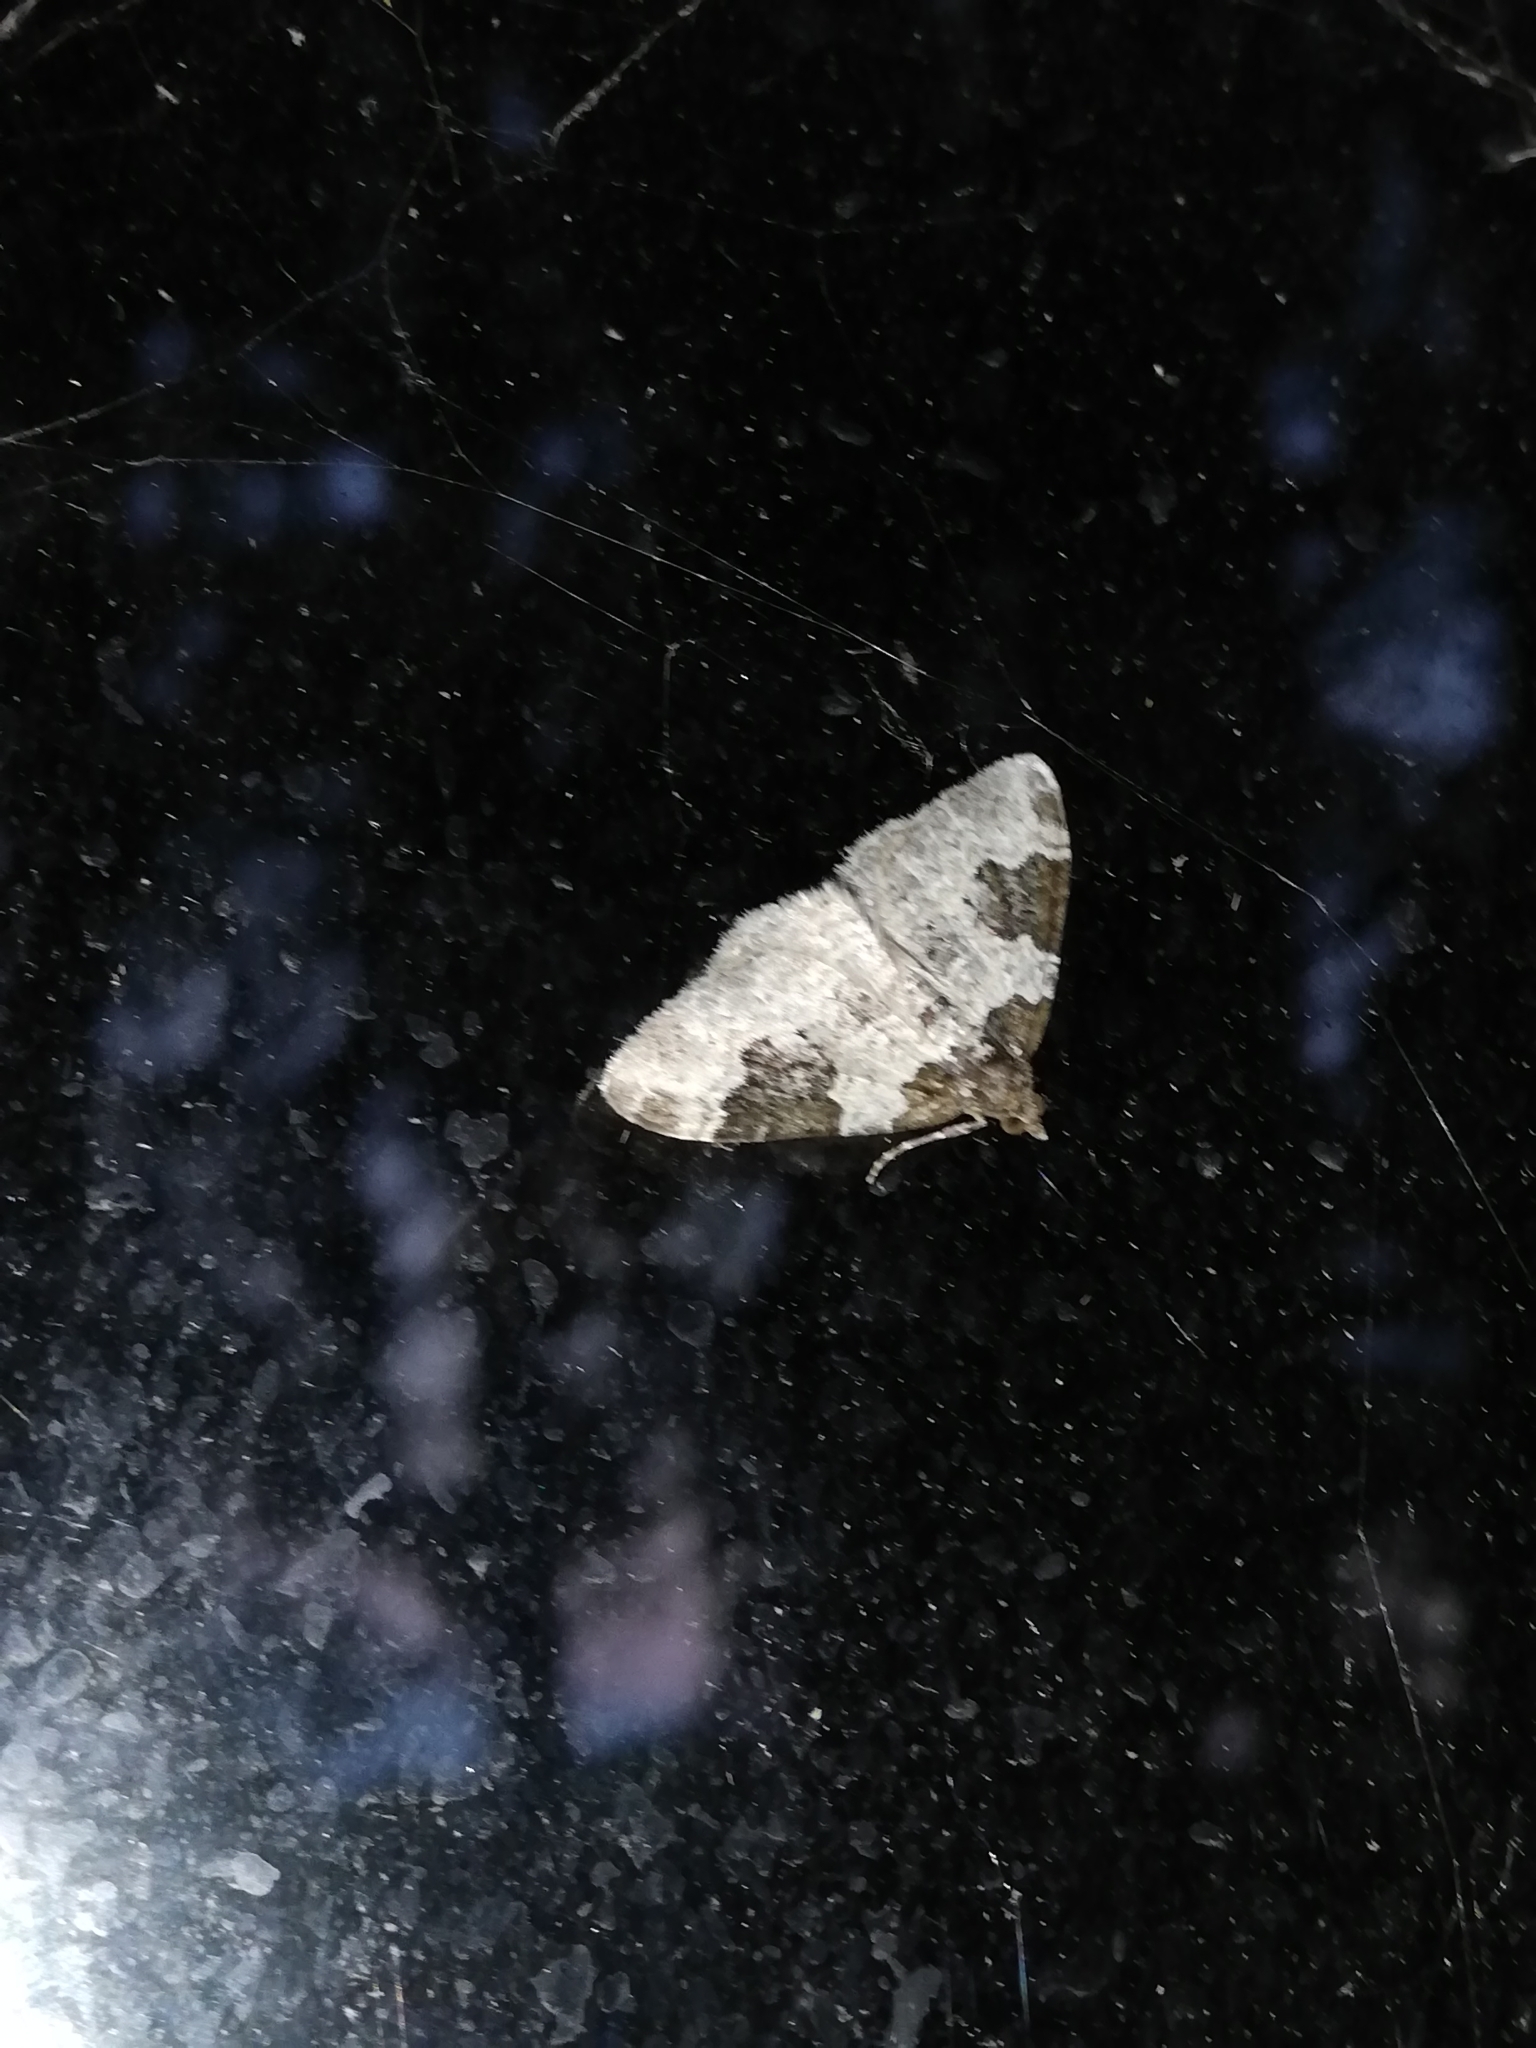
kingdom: Animalia
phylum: Arthropoda
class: Insecta
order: Lepidoptera
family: Geometridae
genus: Xanthorhoe
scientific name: Xanthorhoe fluctuata
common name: Garden carpet
